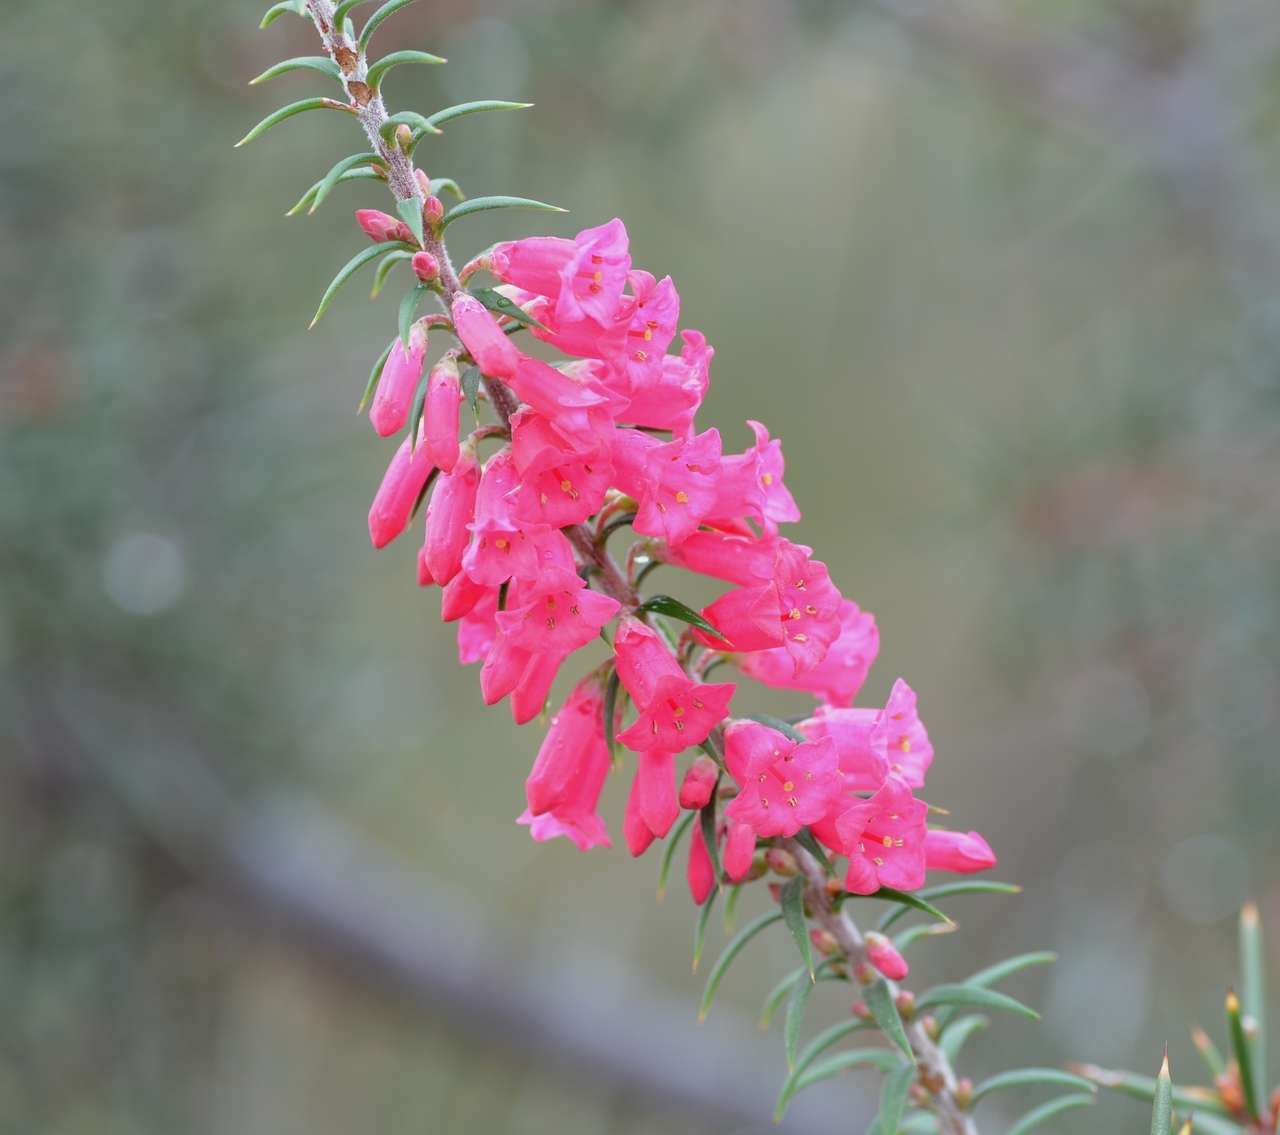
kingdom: Plantae
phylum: Tracheophyta
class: Magnoliopsida
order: Ericales
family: Ericaceae
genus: Epacris
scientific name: Epacris impressa
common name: Common-heath
